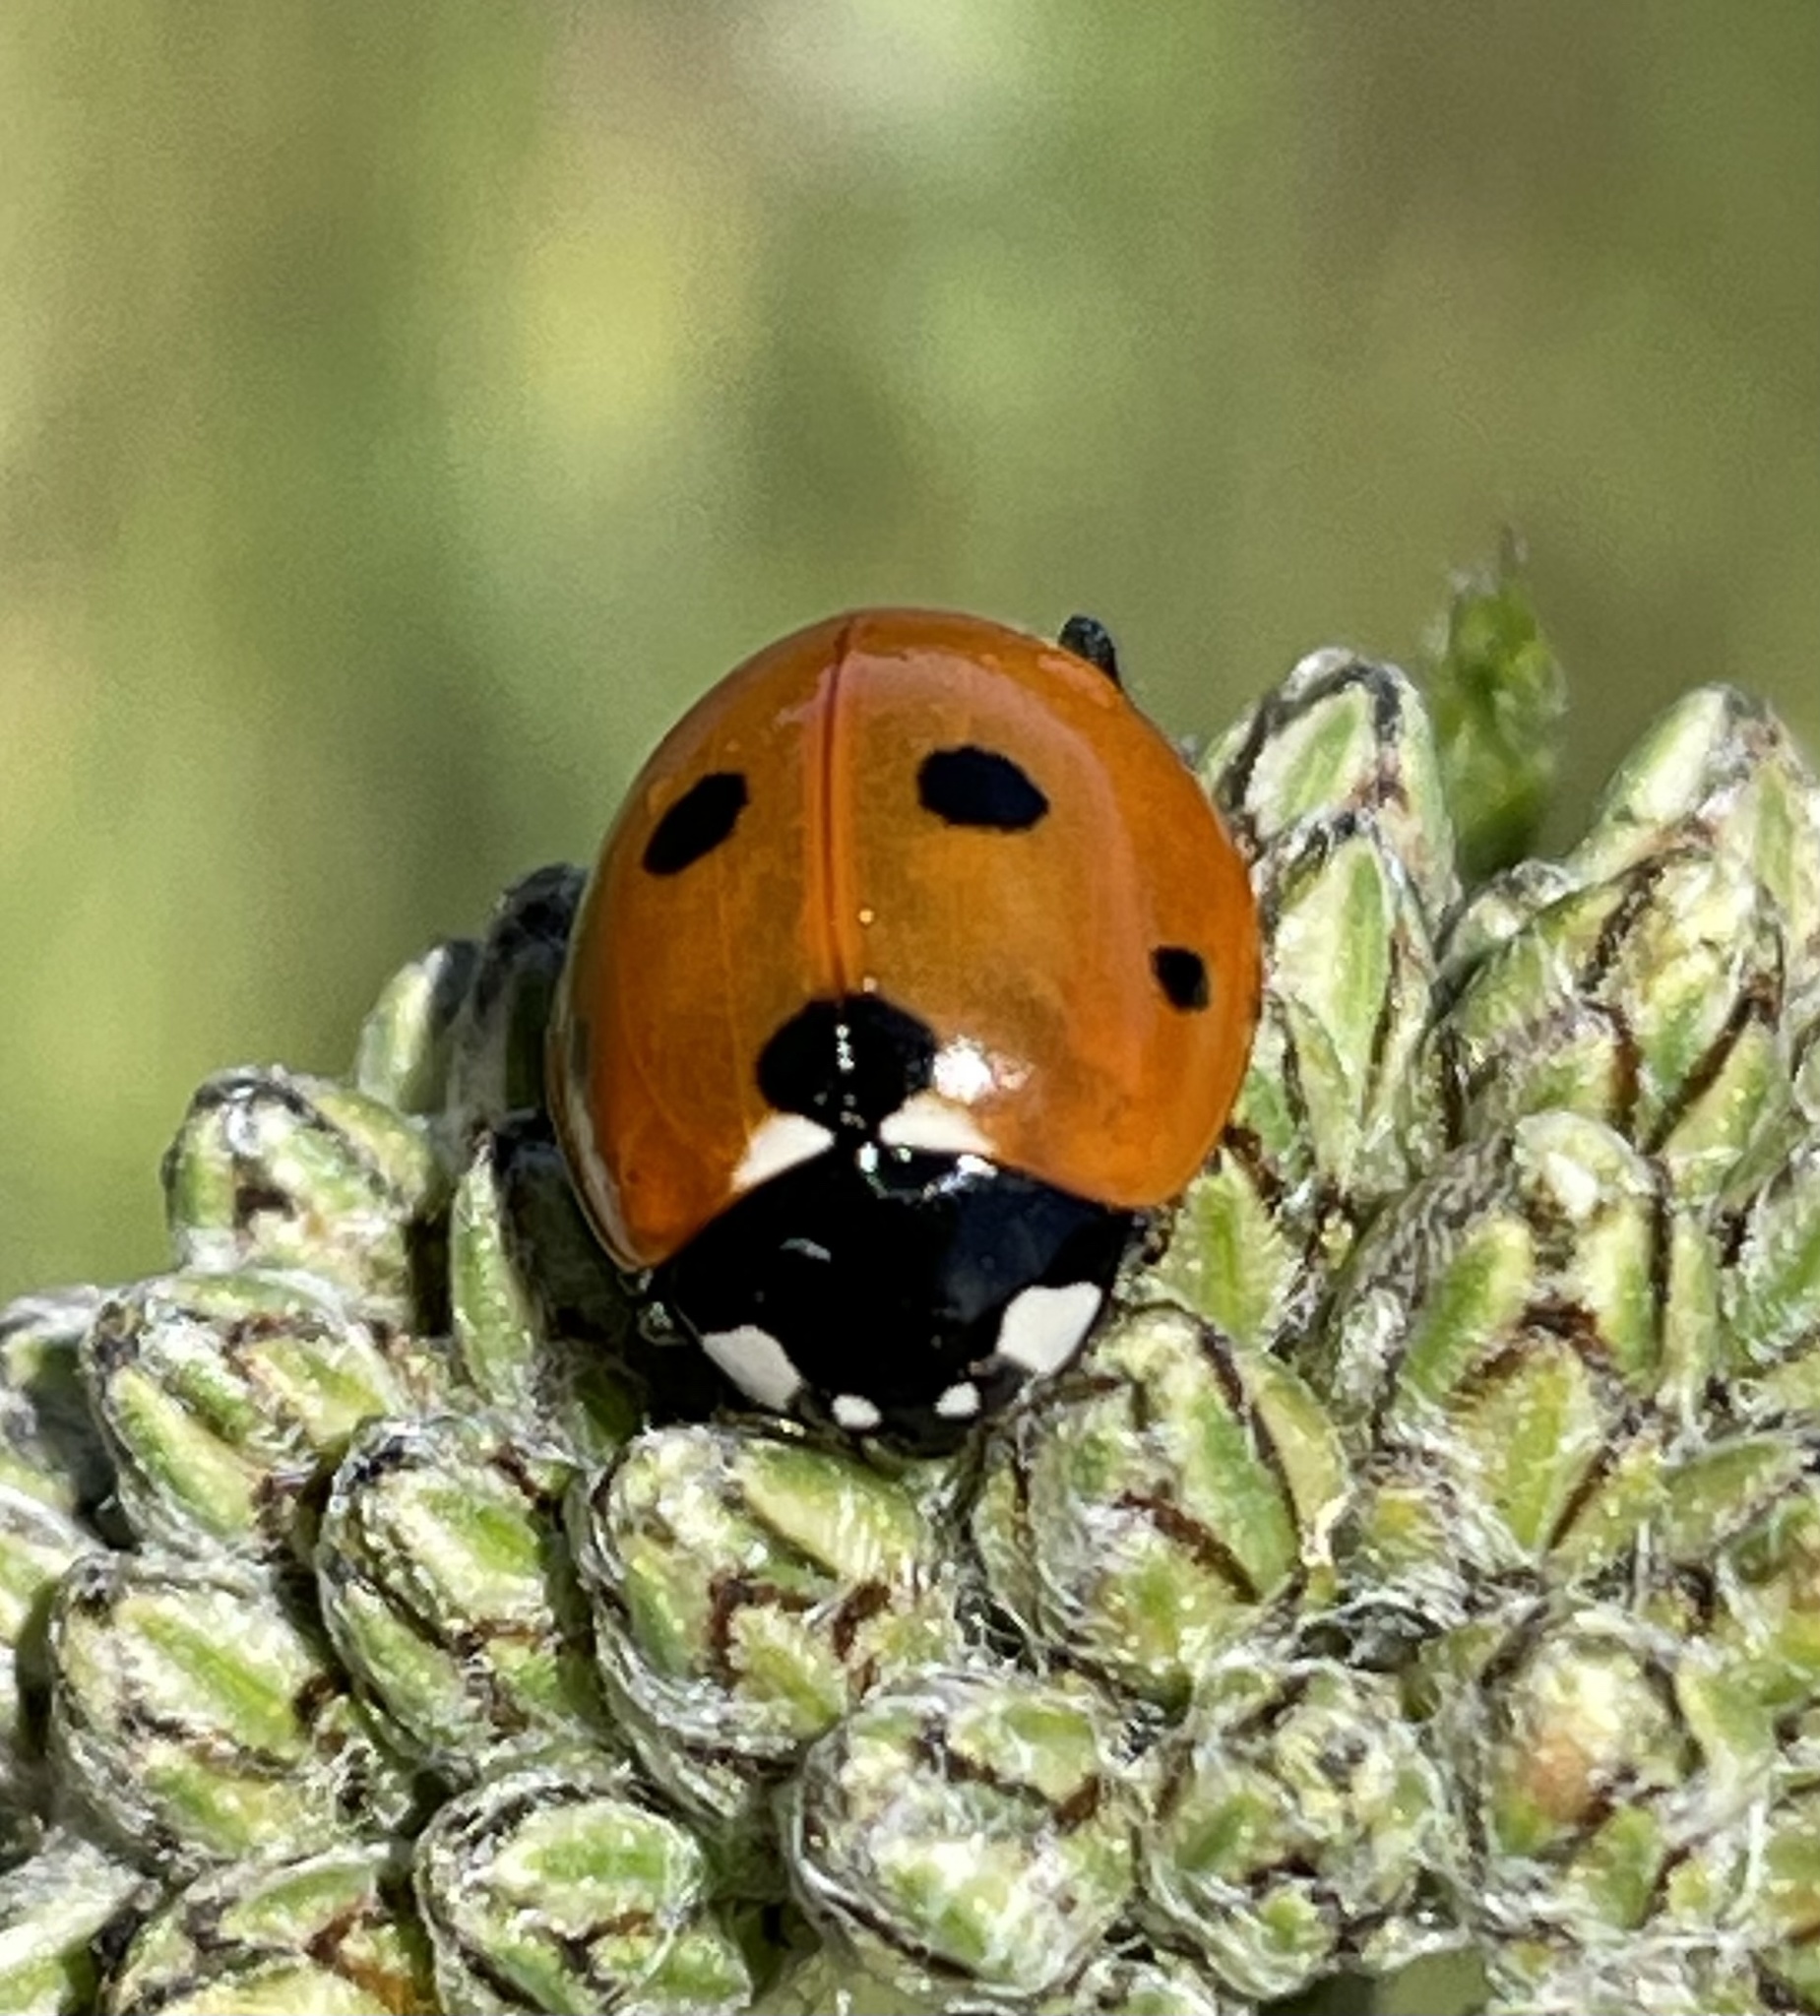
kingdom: Animalia
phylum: Arthropoda
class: Insecta
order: Coleoptera
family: Coccinellidae
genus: Coccinella
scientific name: Coccinella septempunctata
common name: Sevenspotted lady beetle
